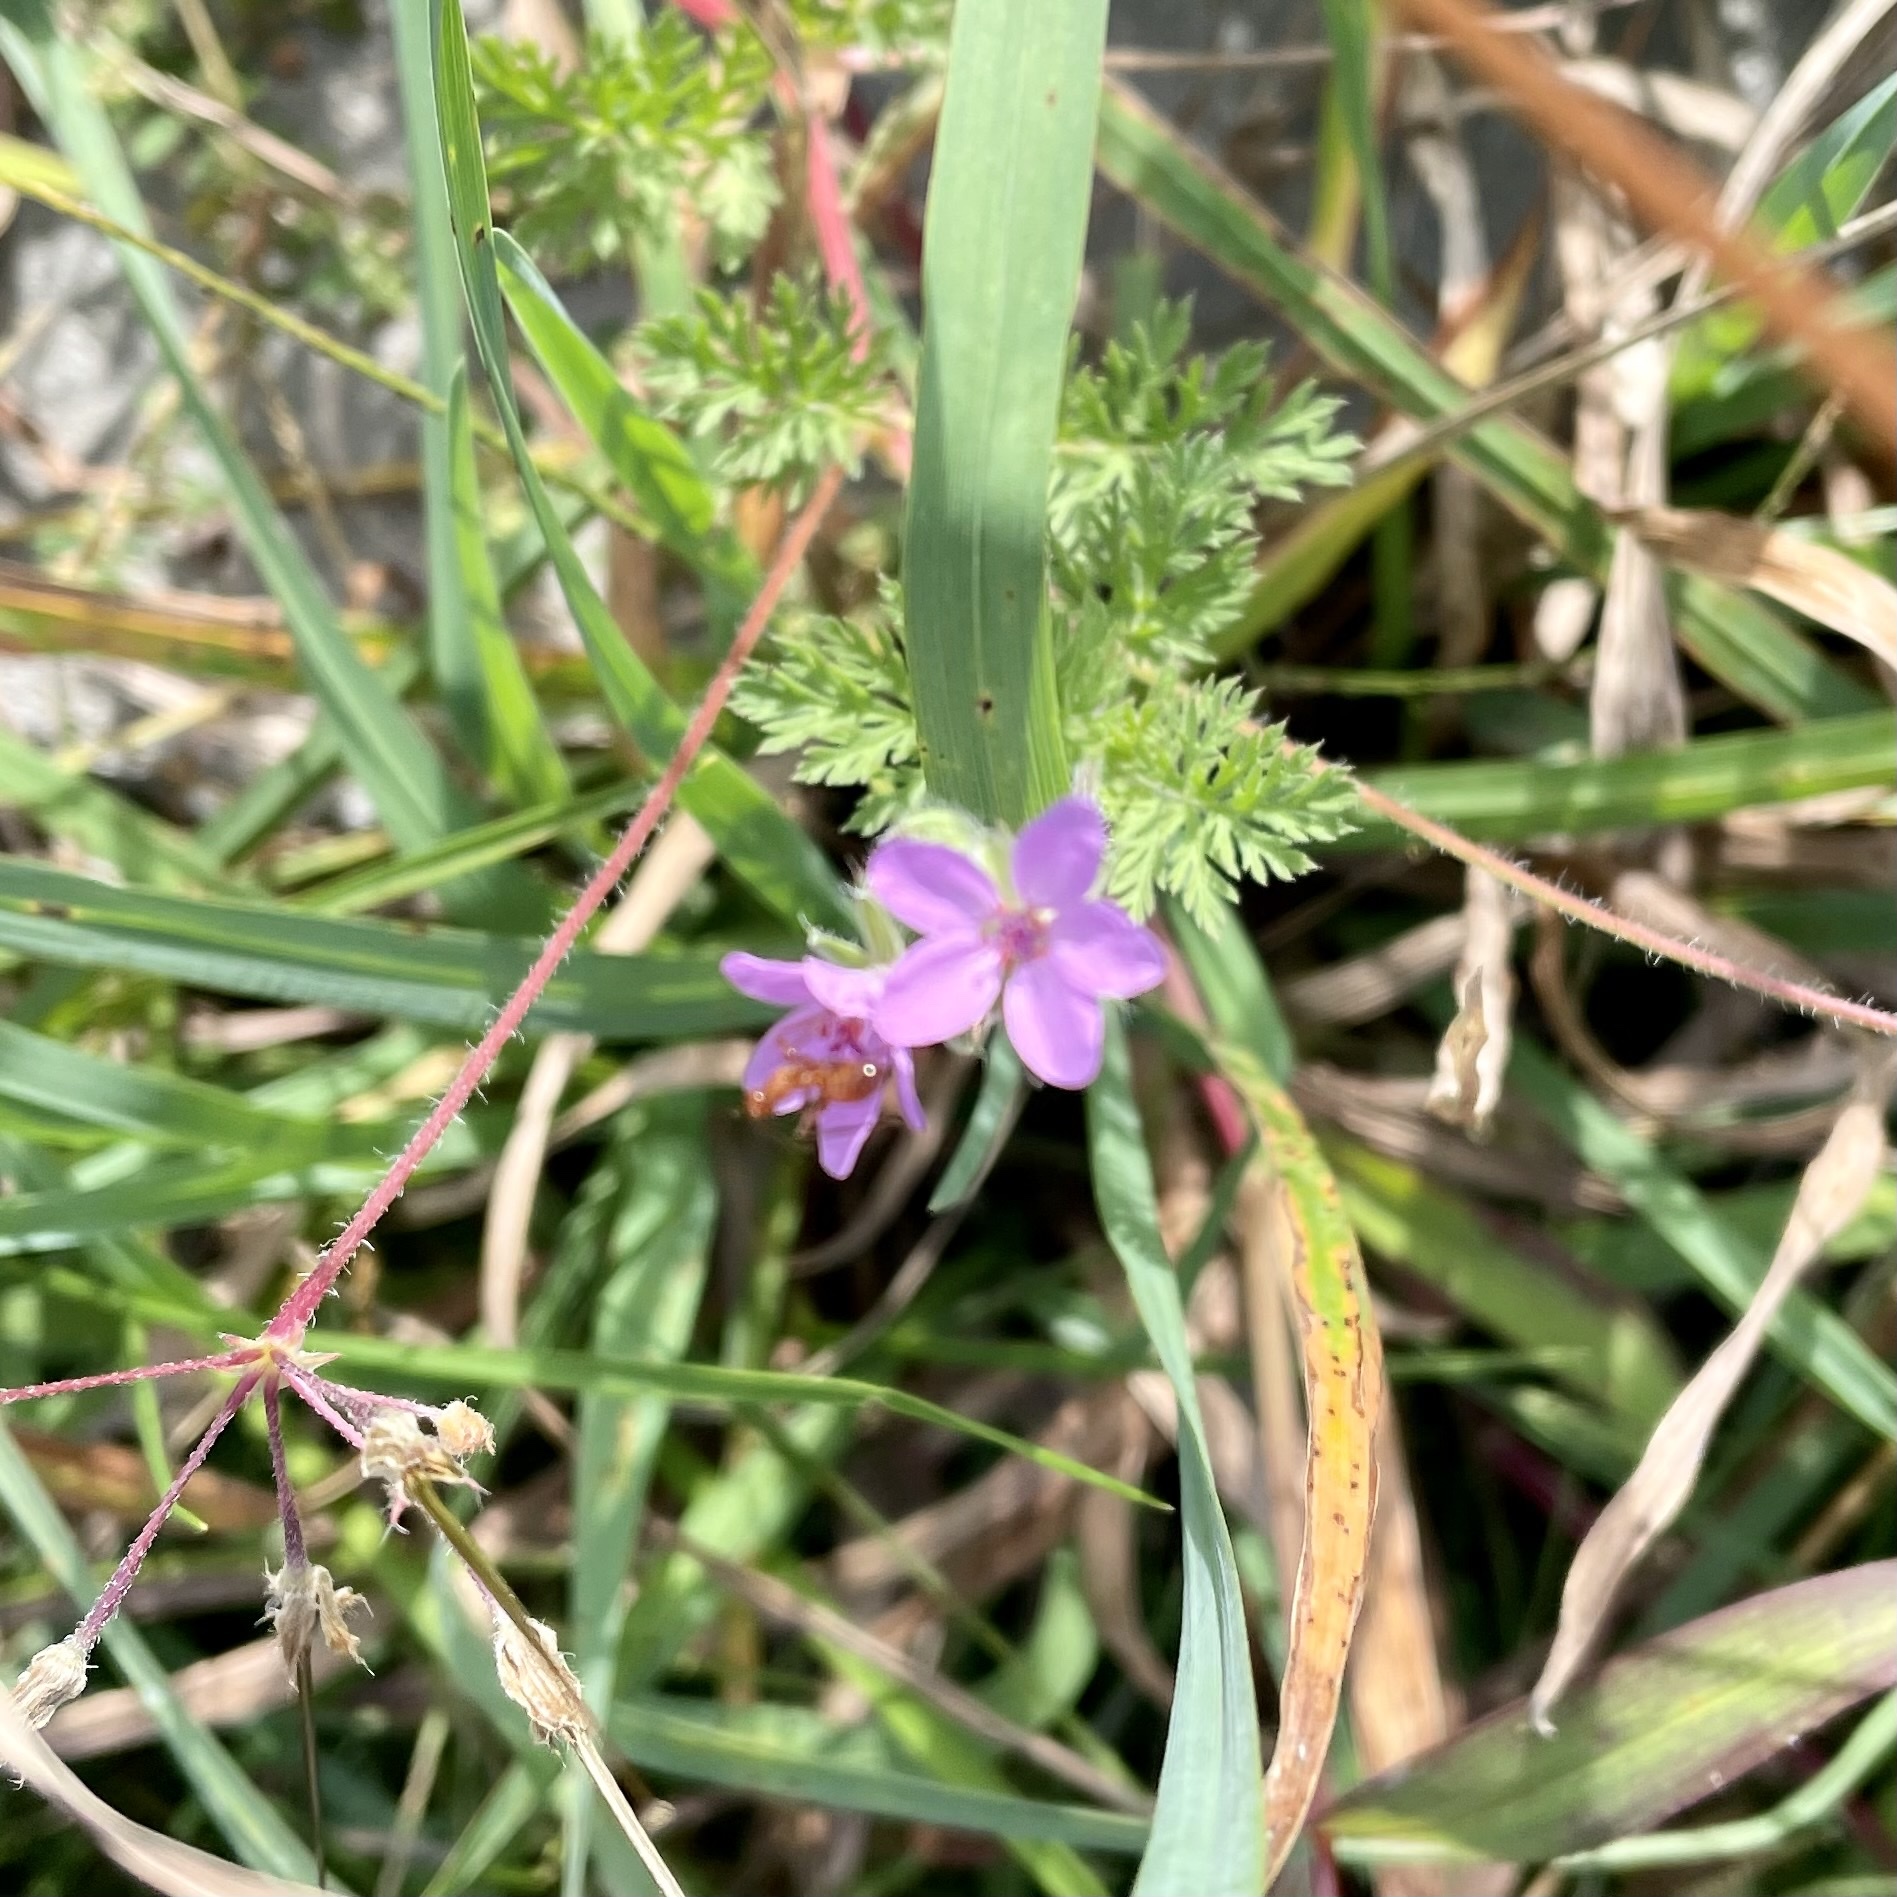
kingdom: Plantae
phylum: Tracheophyta
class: Magnoliopsida
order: Geraniales
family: Geraniaceae
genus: Erodium
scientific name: Erodium cicutarium
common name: Common stork's-bill
